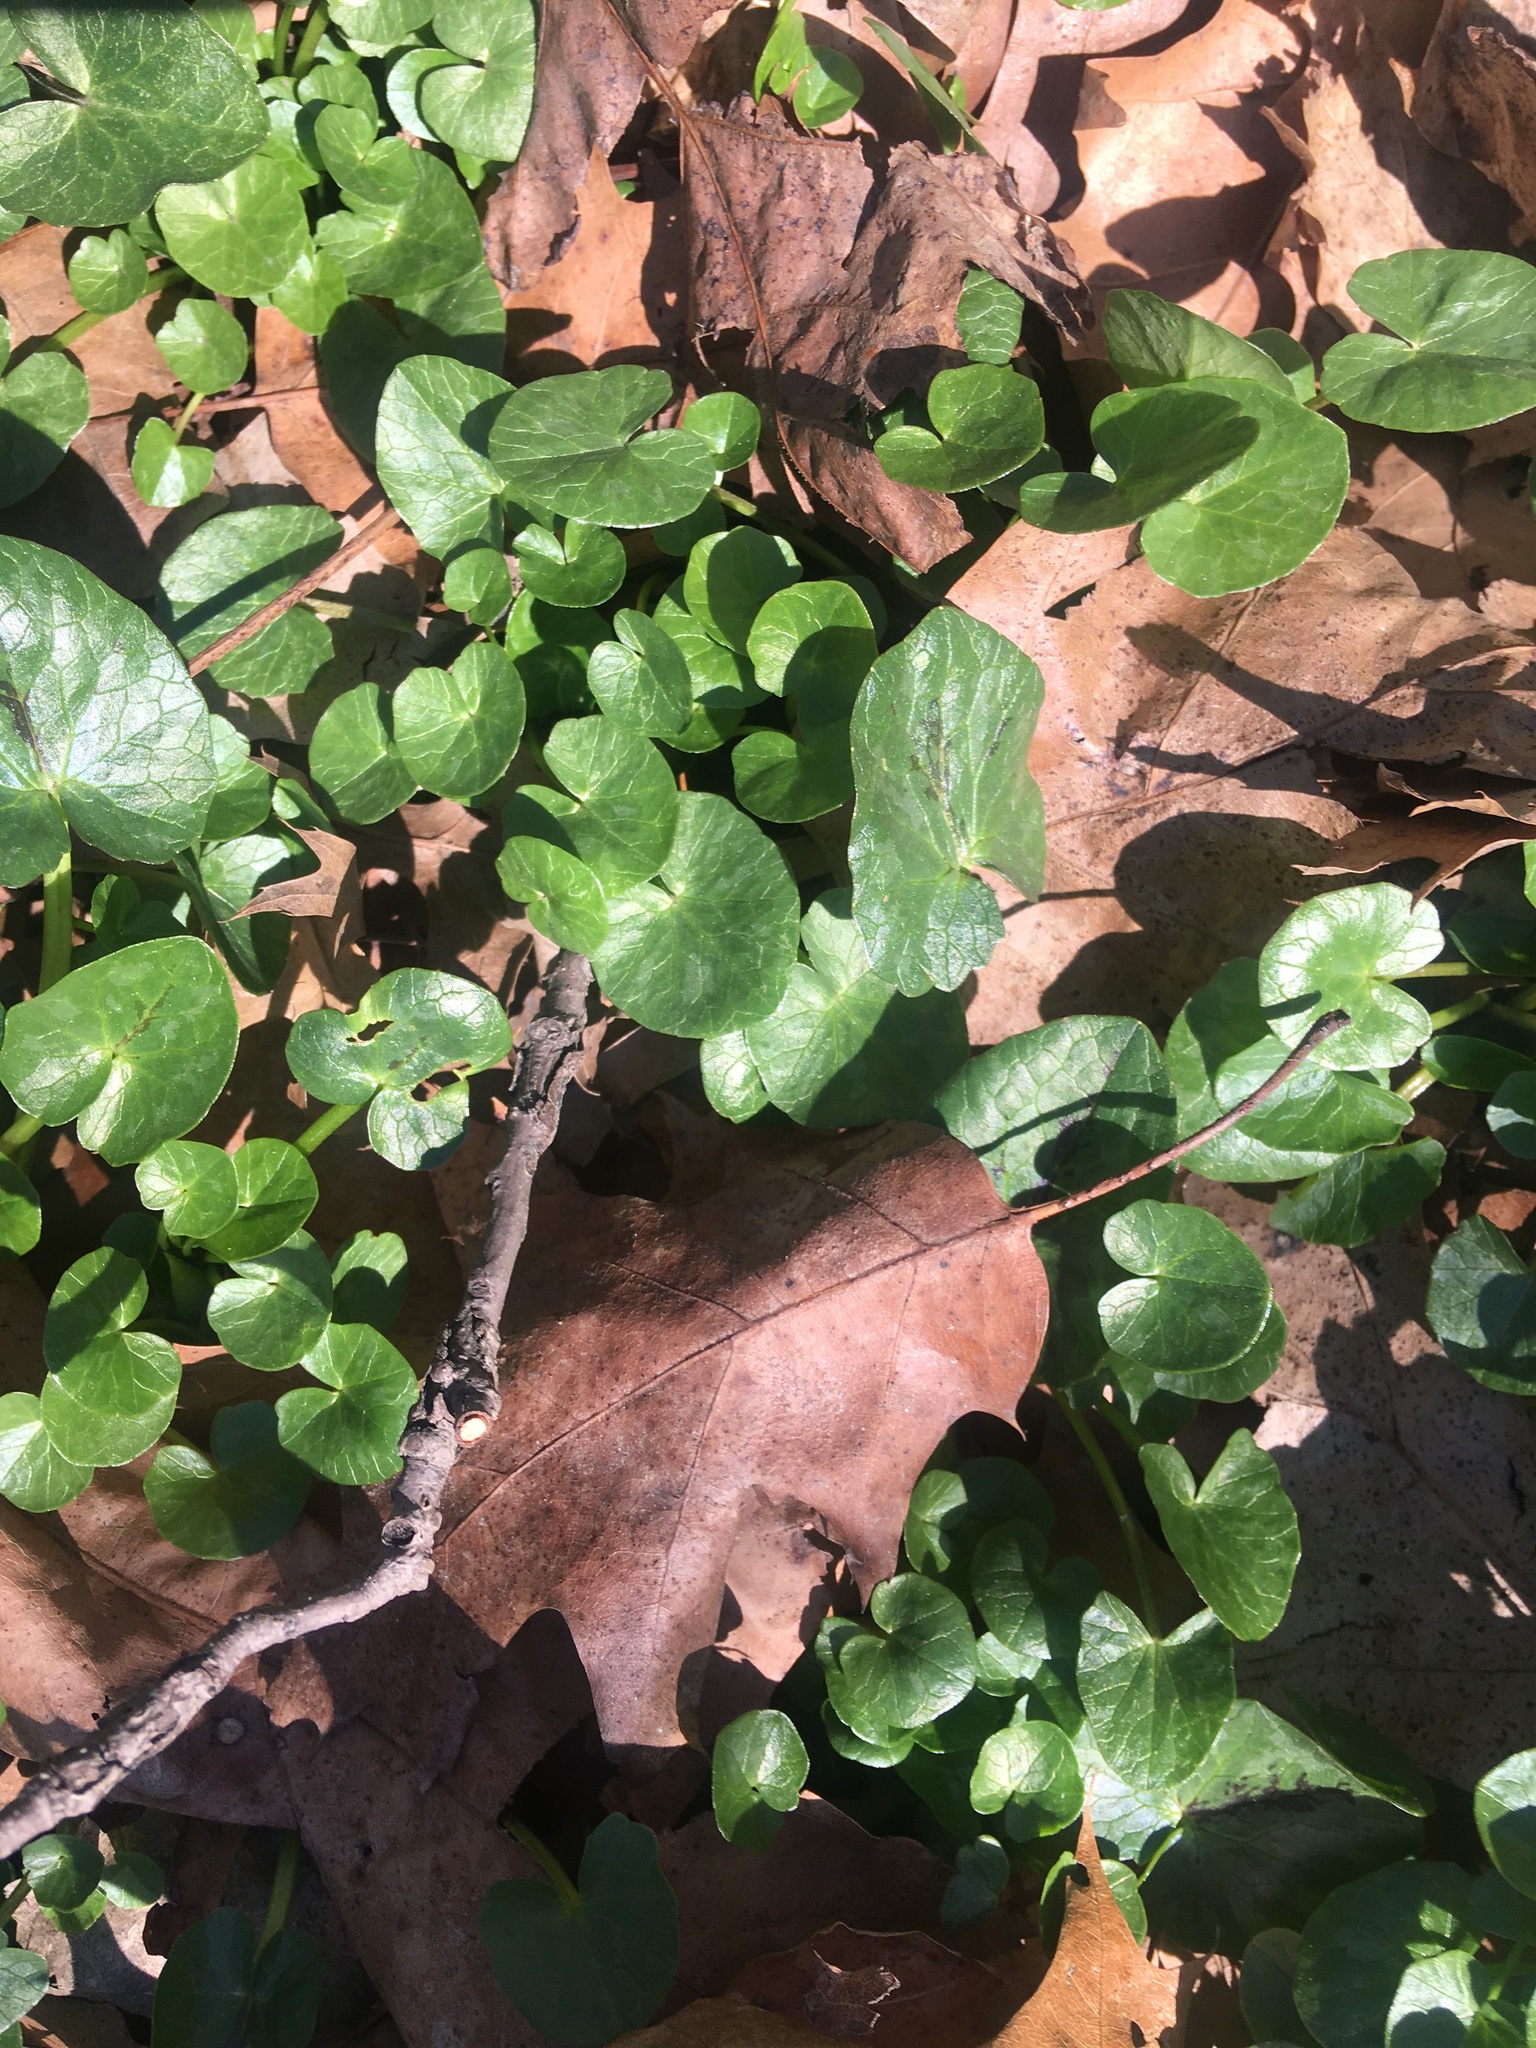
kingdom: Plantae
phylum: Tracheophyta
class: Magnoliopsida
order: Ranunculales
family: Ranunculaceae
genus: Ficaria
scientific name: Ficaria verna
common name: Lesser celandine
